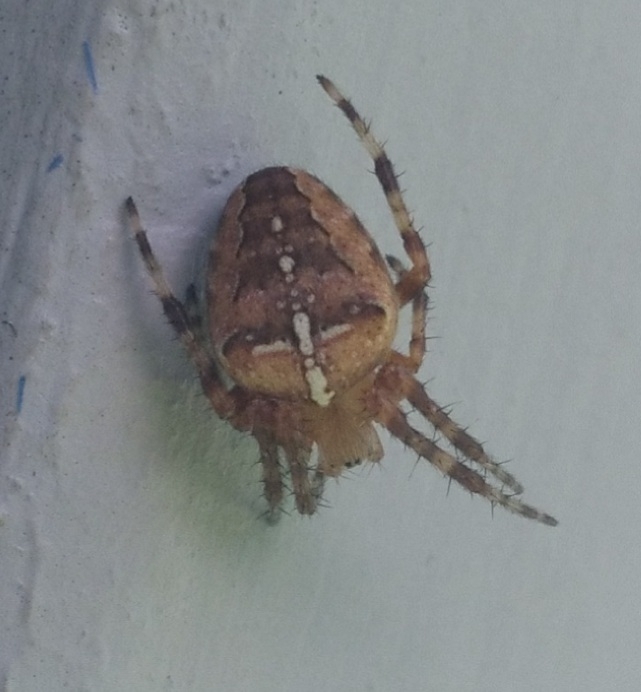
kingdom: Animalia
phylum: Arthropoda
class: Arachnida
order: Araneae
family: Araneidae
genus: Araneus
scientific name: Araneus diadematus
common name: Cross orbweaver
